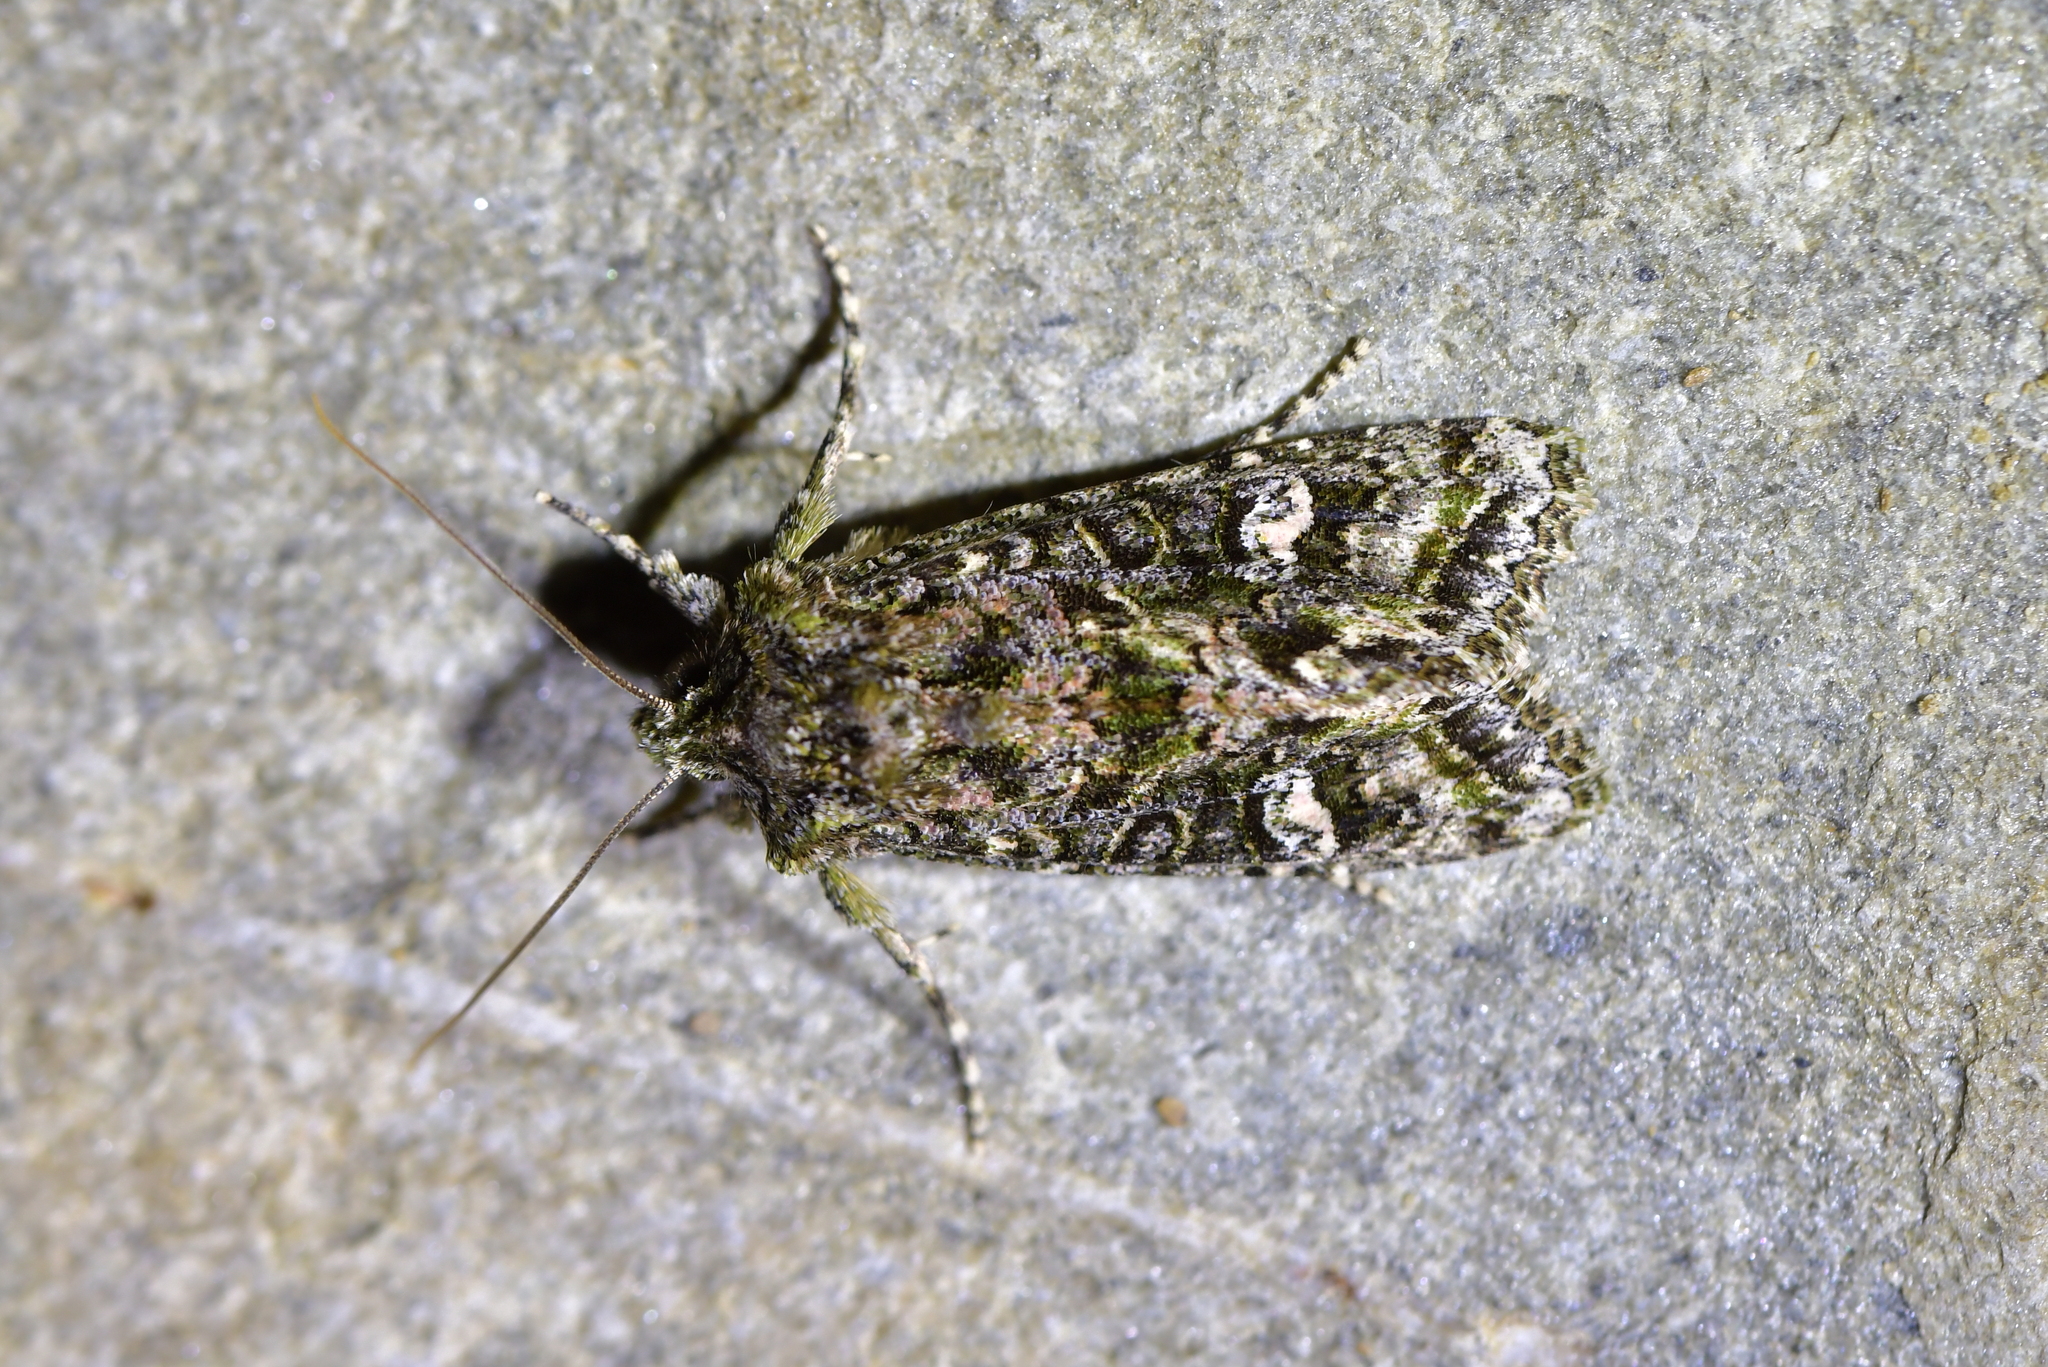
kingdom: Animalia
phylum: Arthropoda
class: Insecta
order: Lepidoptera
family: Noctuidae
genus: Ichneutica
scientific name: Ichneutica
